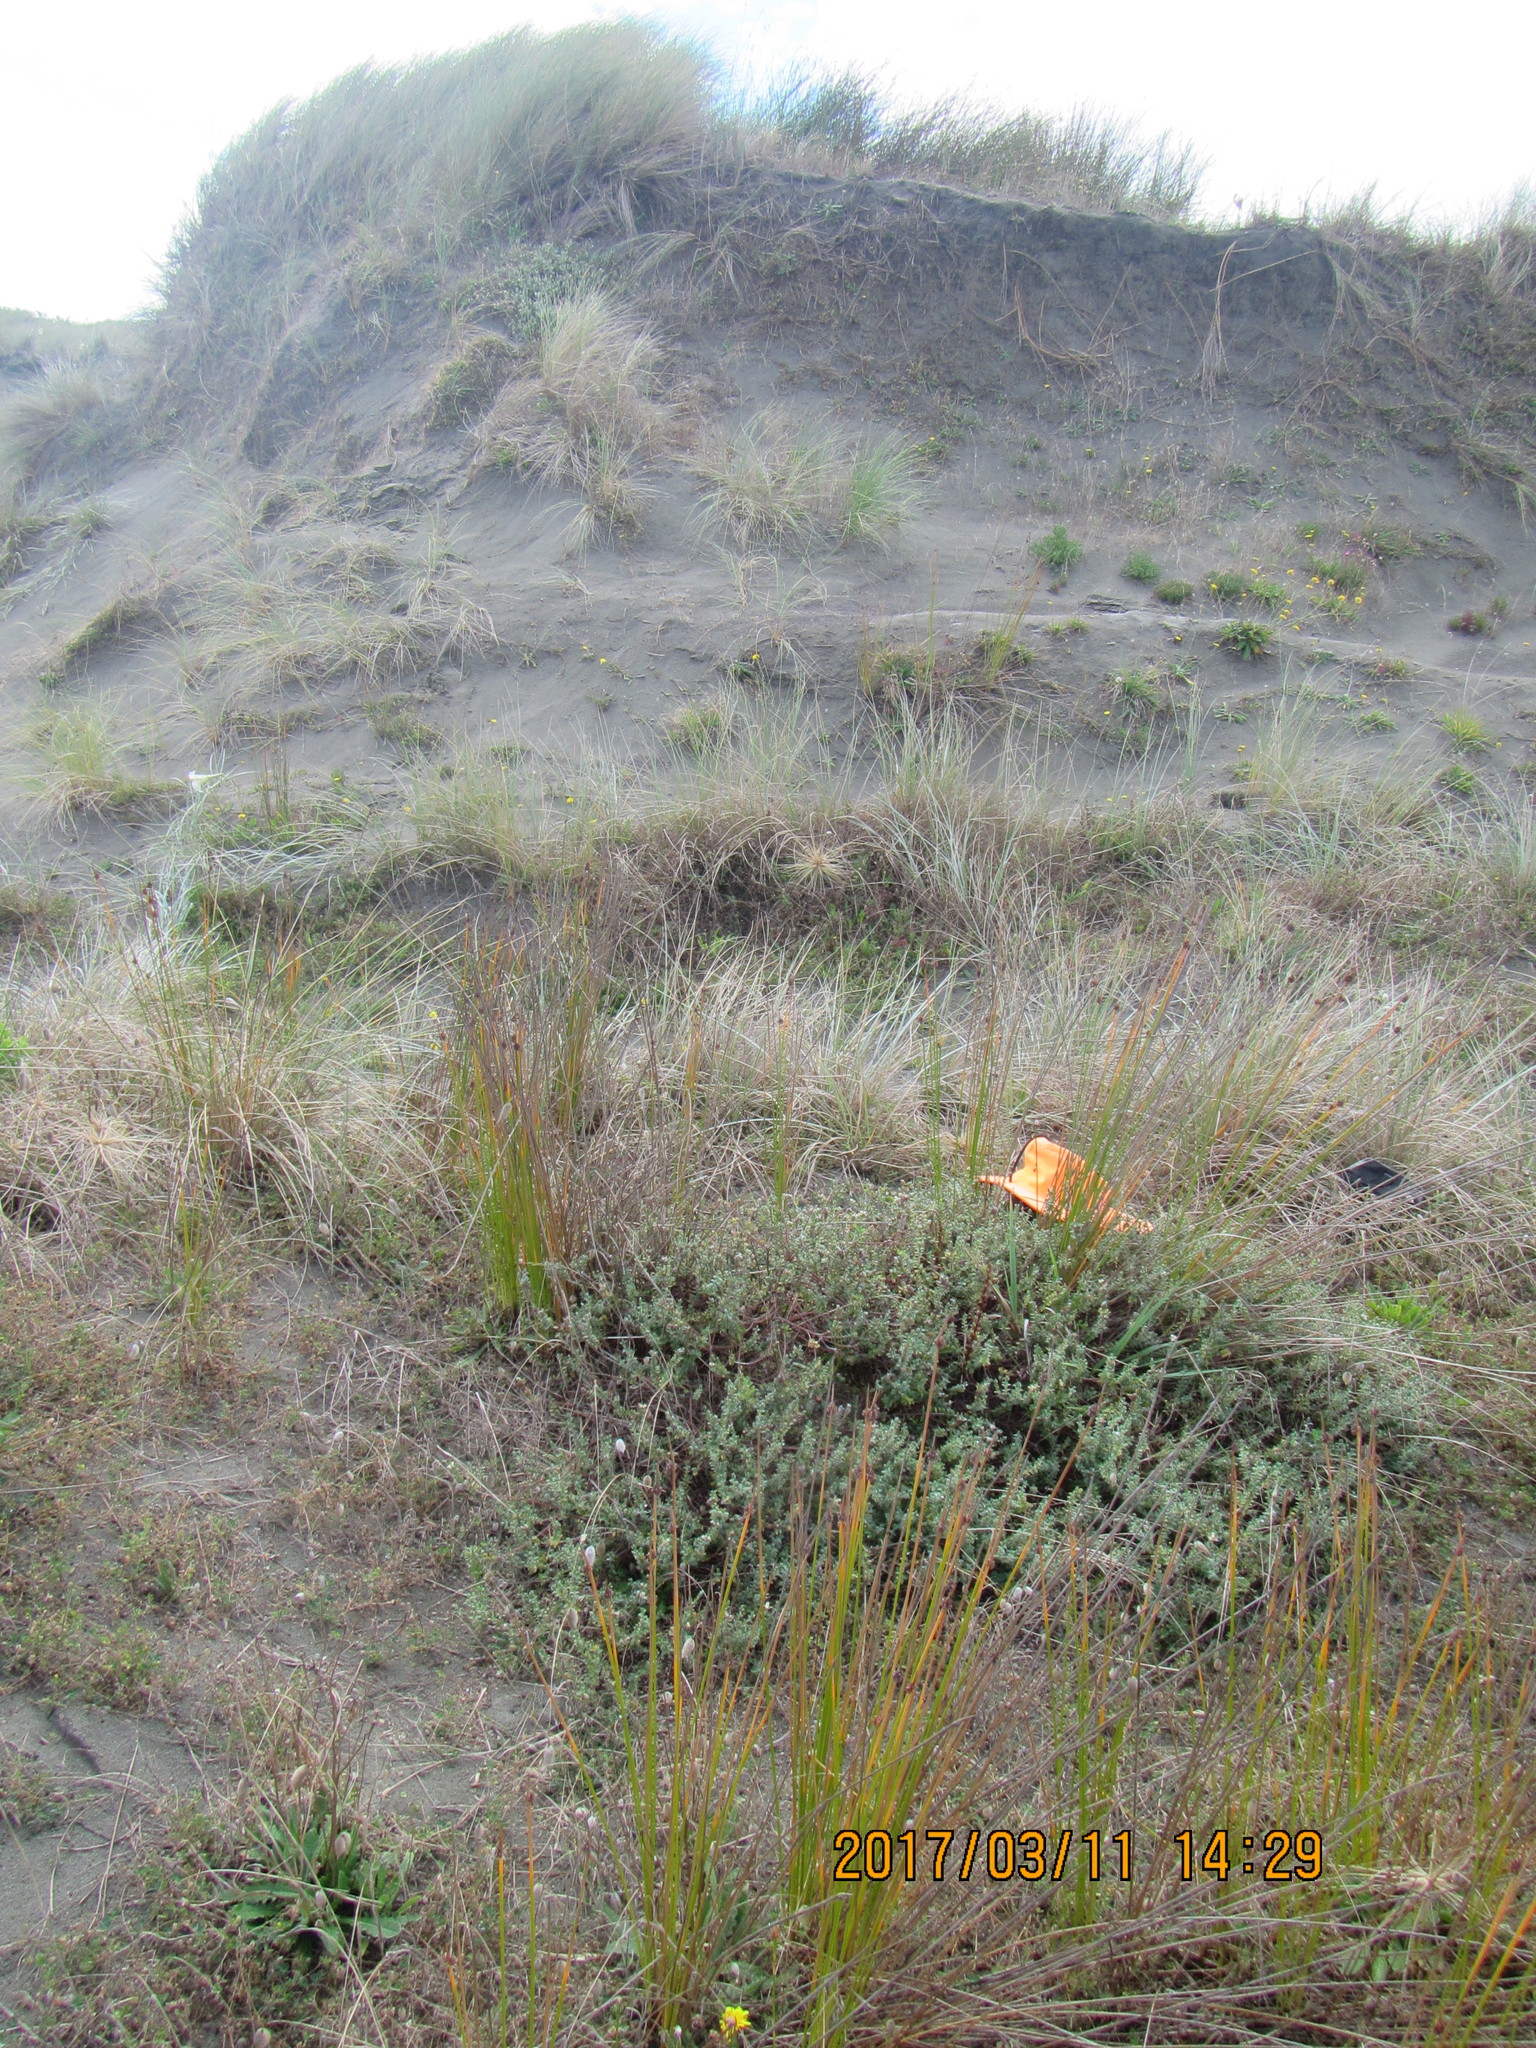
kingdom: Animalia
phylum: Arthropoda
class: Arachnida
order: Araneae
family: Theridiidae
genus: Latrodectus
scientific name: Latrodectus katipo
